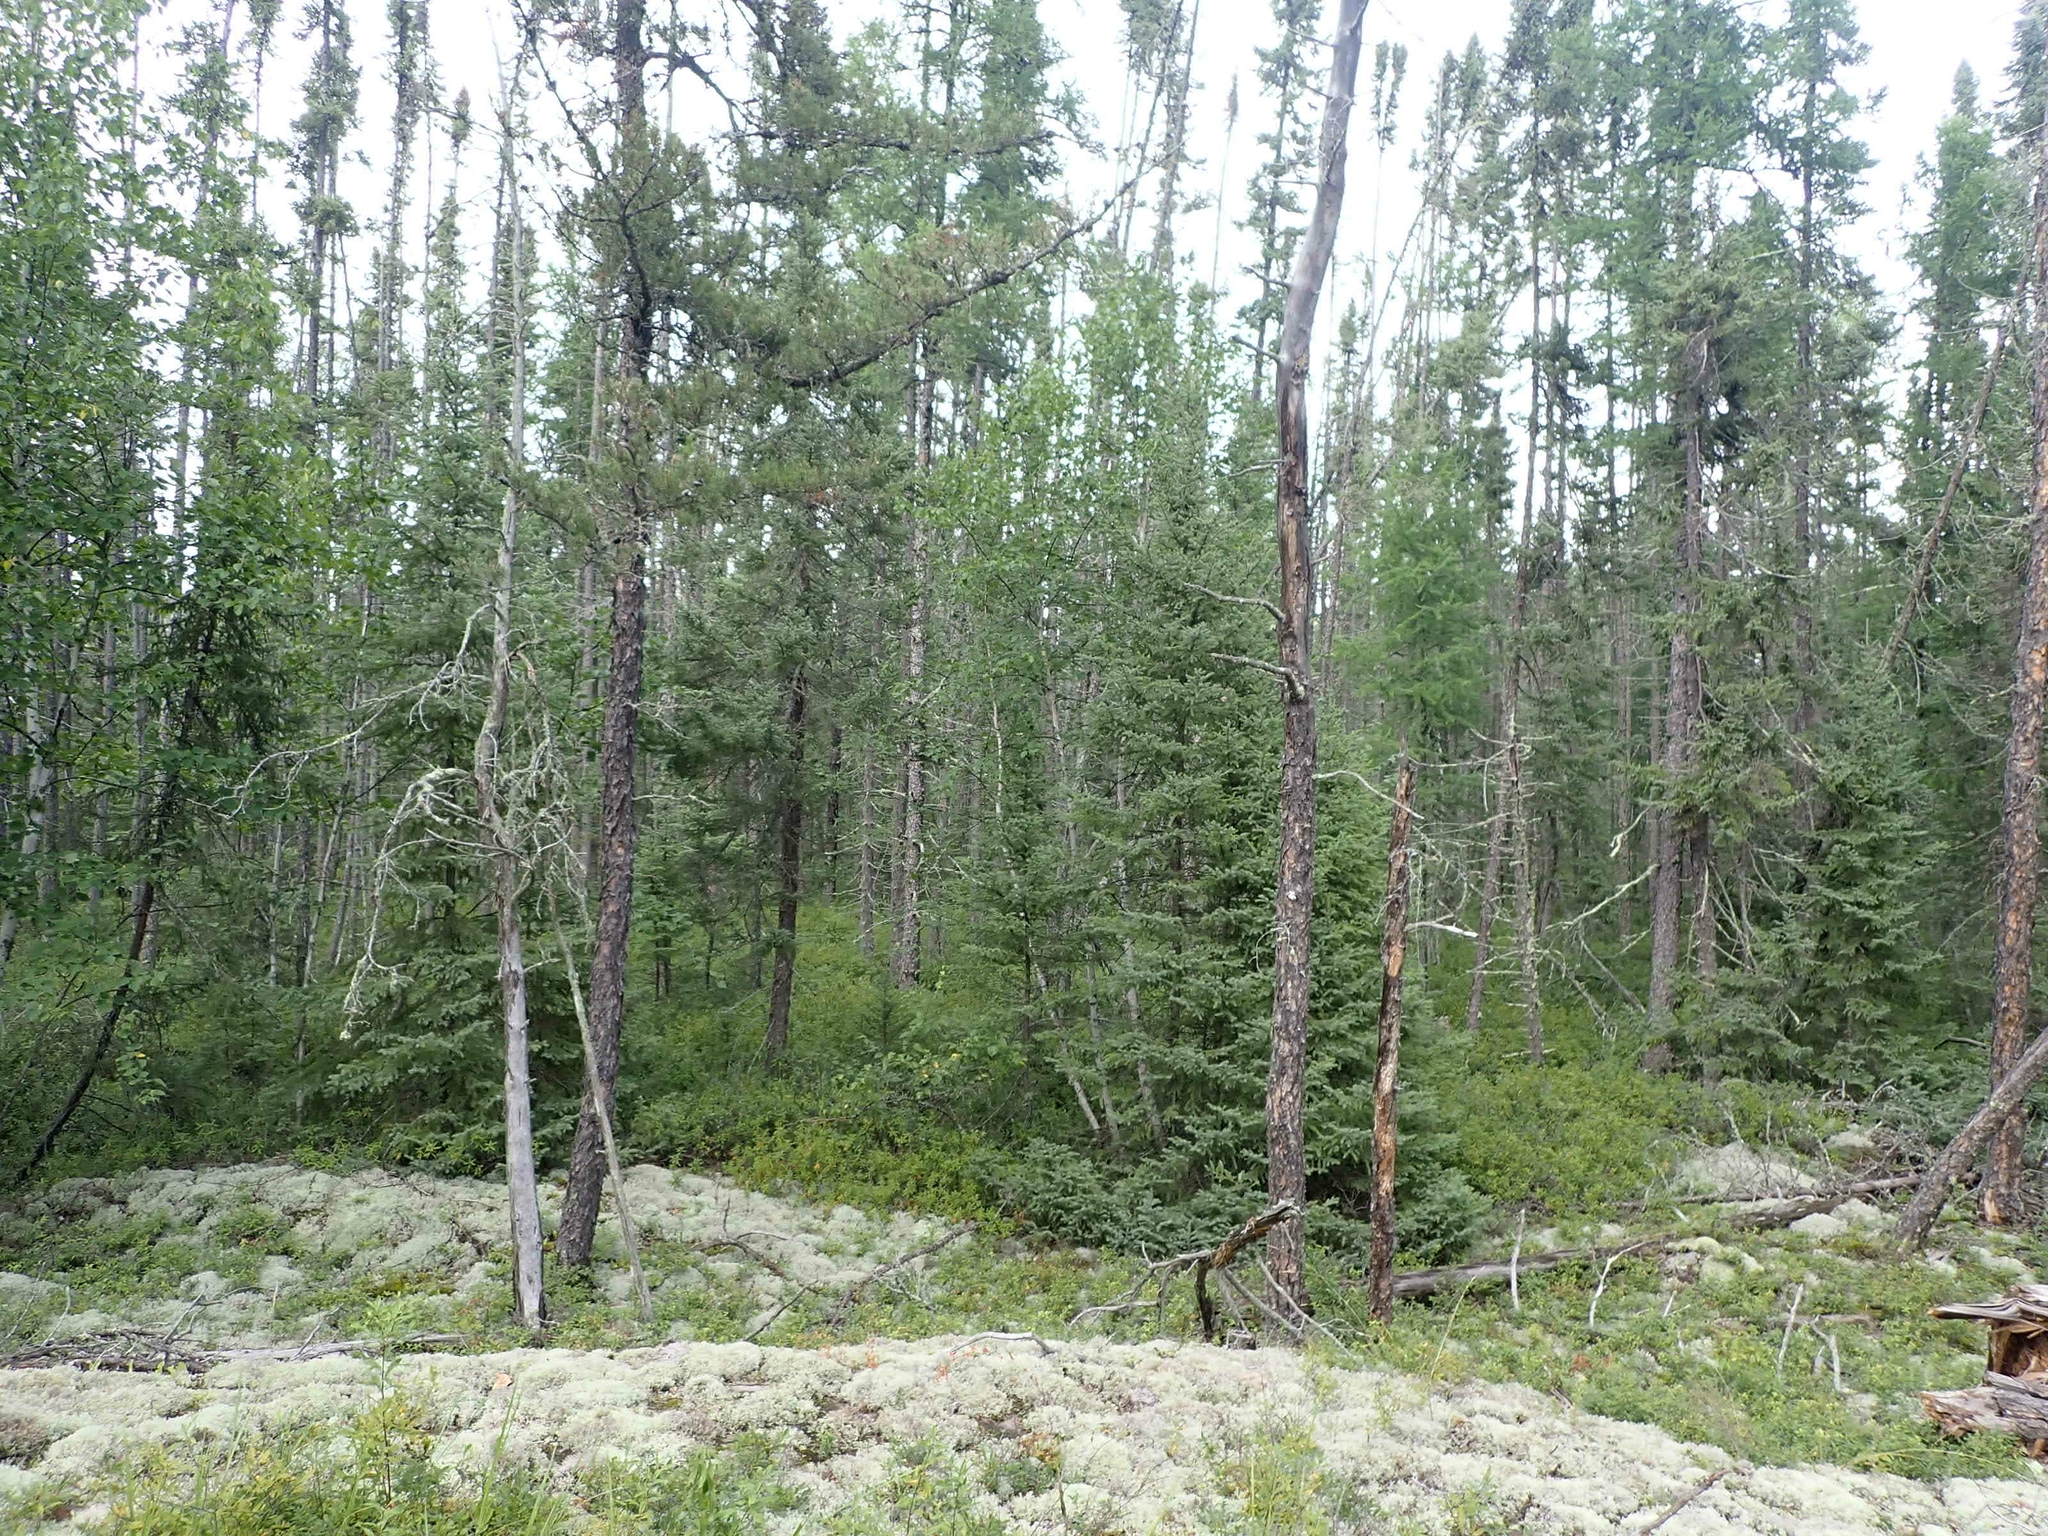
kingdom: Plantae
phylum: Tracheophyta
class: Pinopsida
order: Pinales
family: Pinaceae
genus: Picea
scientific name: Picea mariana
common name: Black spruce
